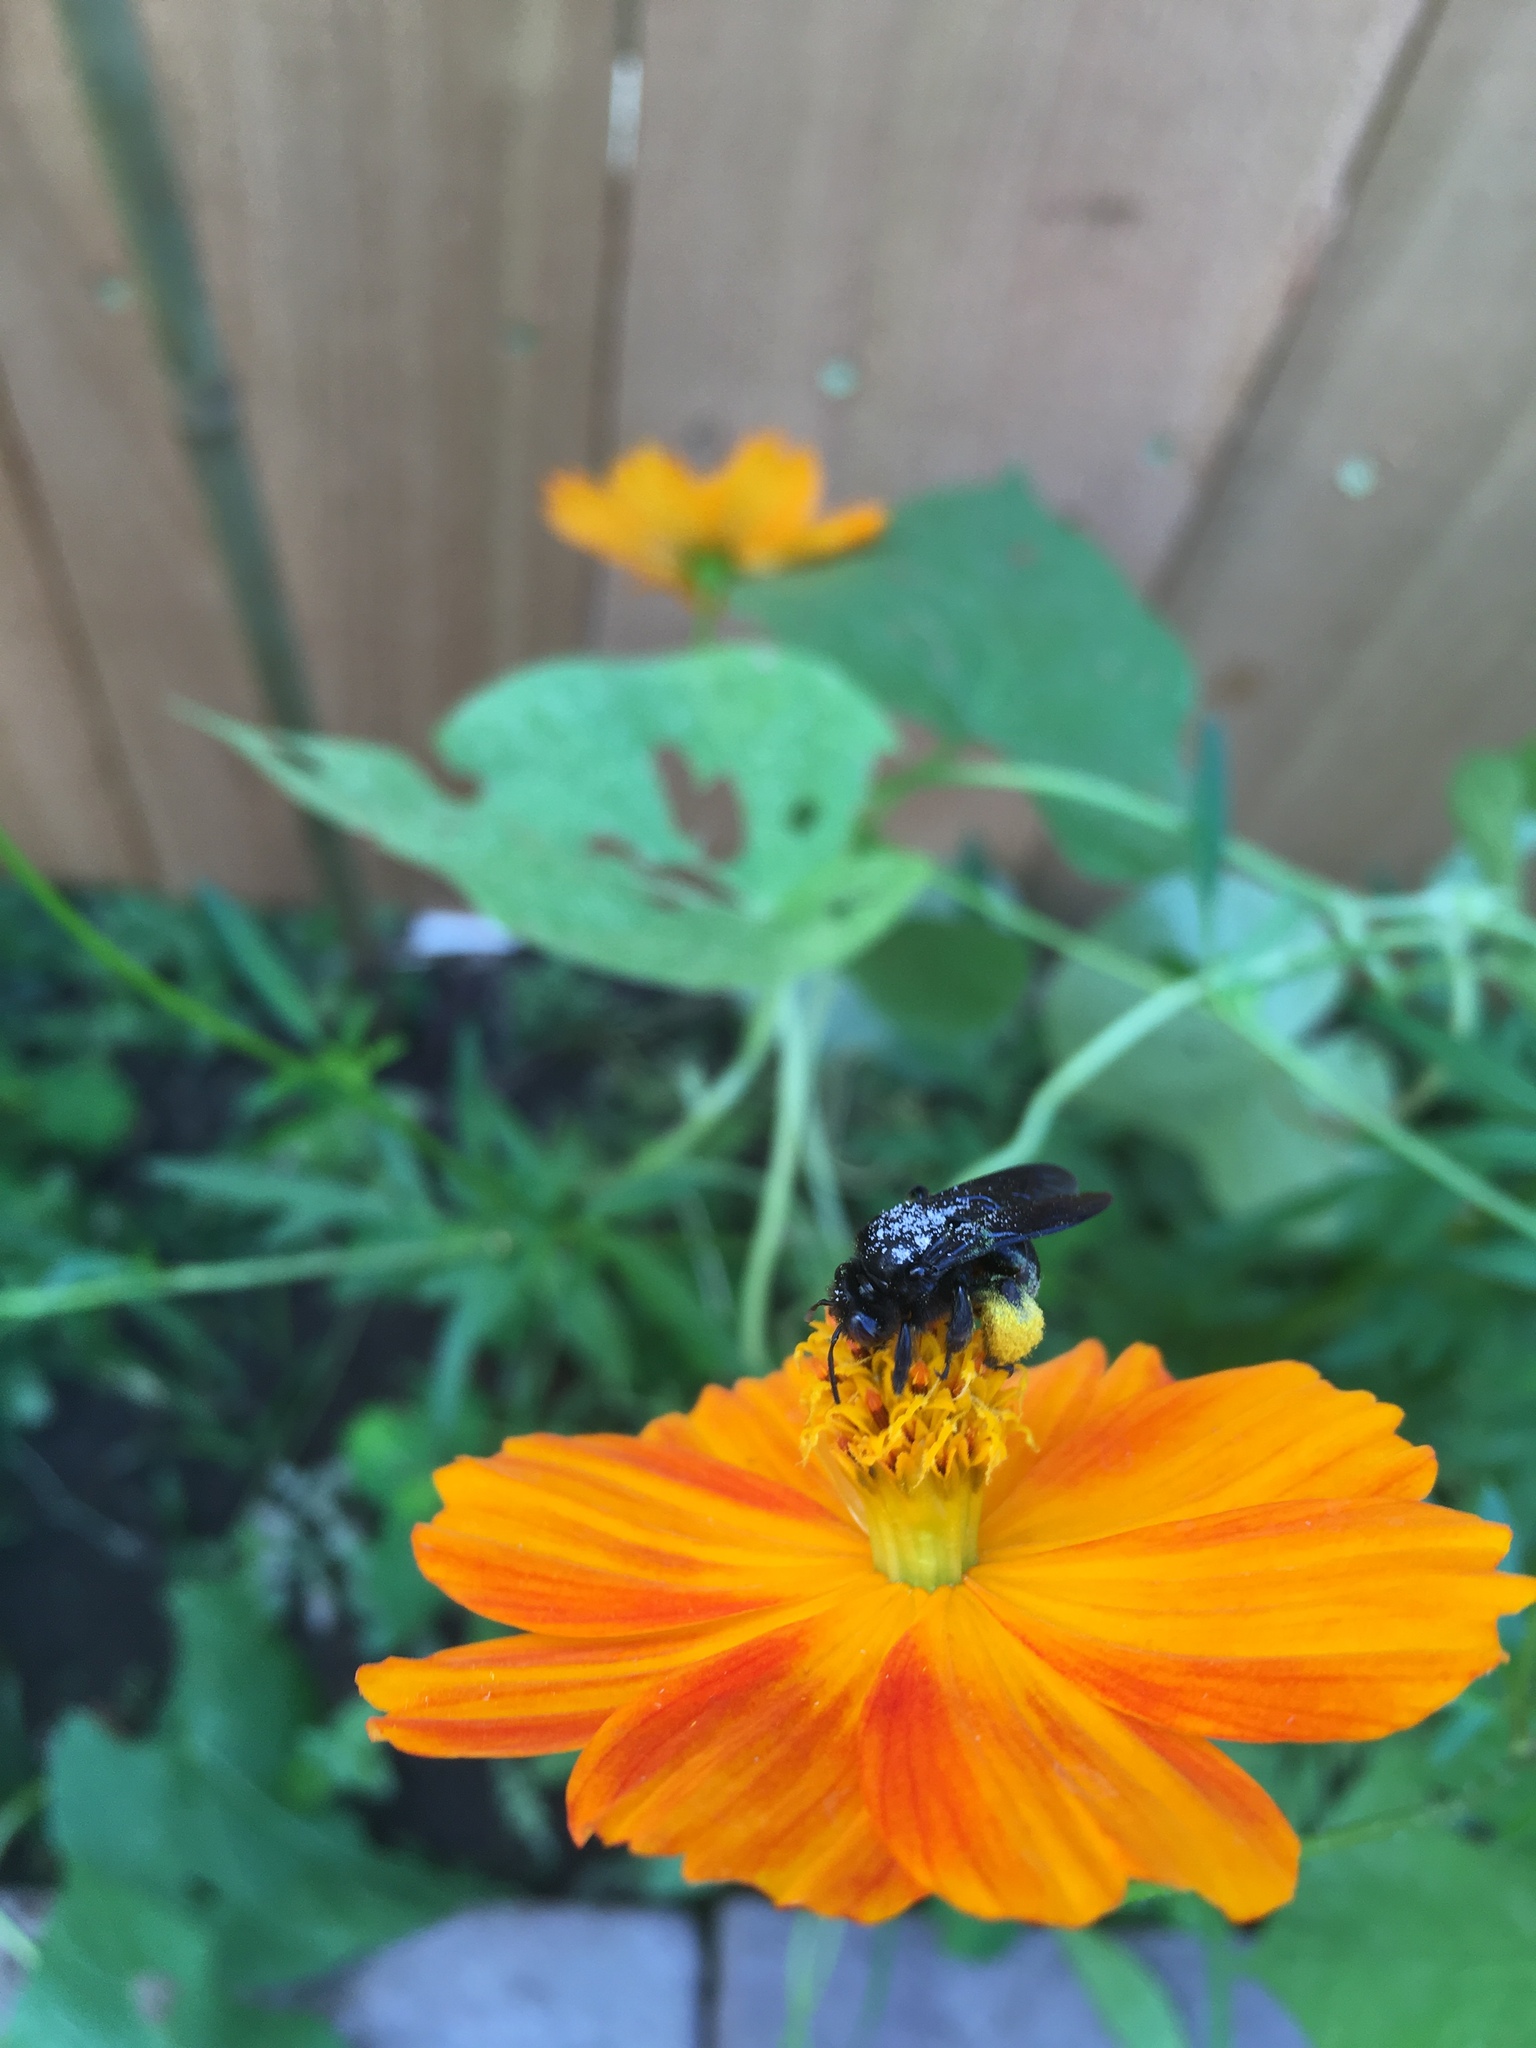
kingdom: Animalia
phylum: Arthropoda
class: Insecta
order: Hymenoptera
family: Apidae
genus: Melissodes
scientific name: Melissodes bimaculatus
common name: Two-spotted long-horned bee
